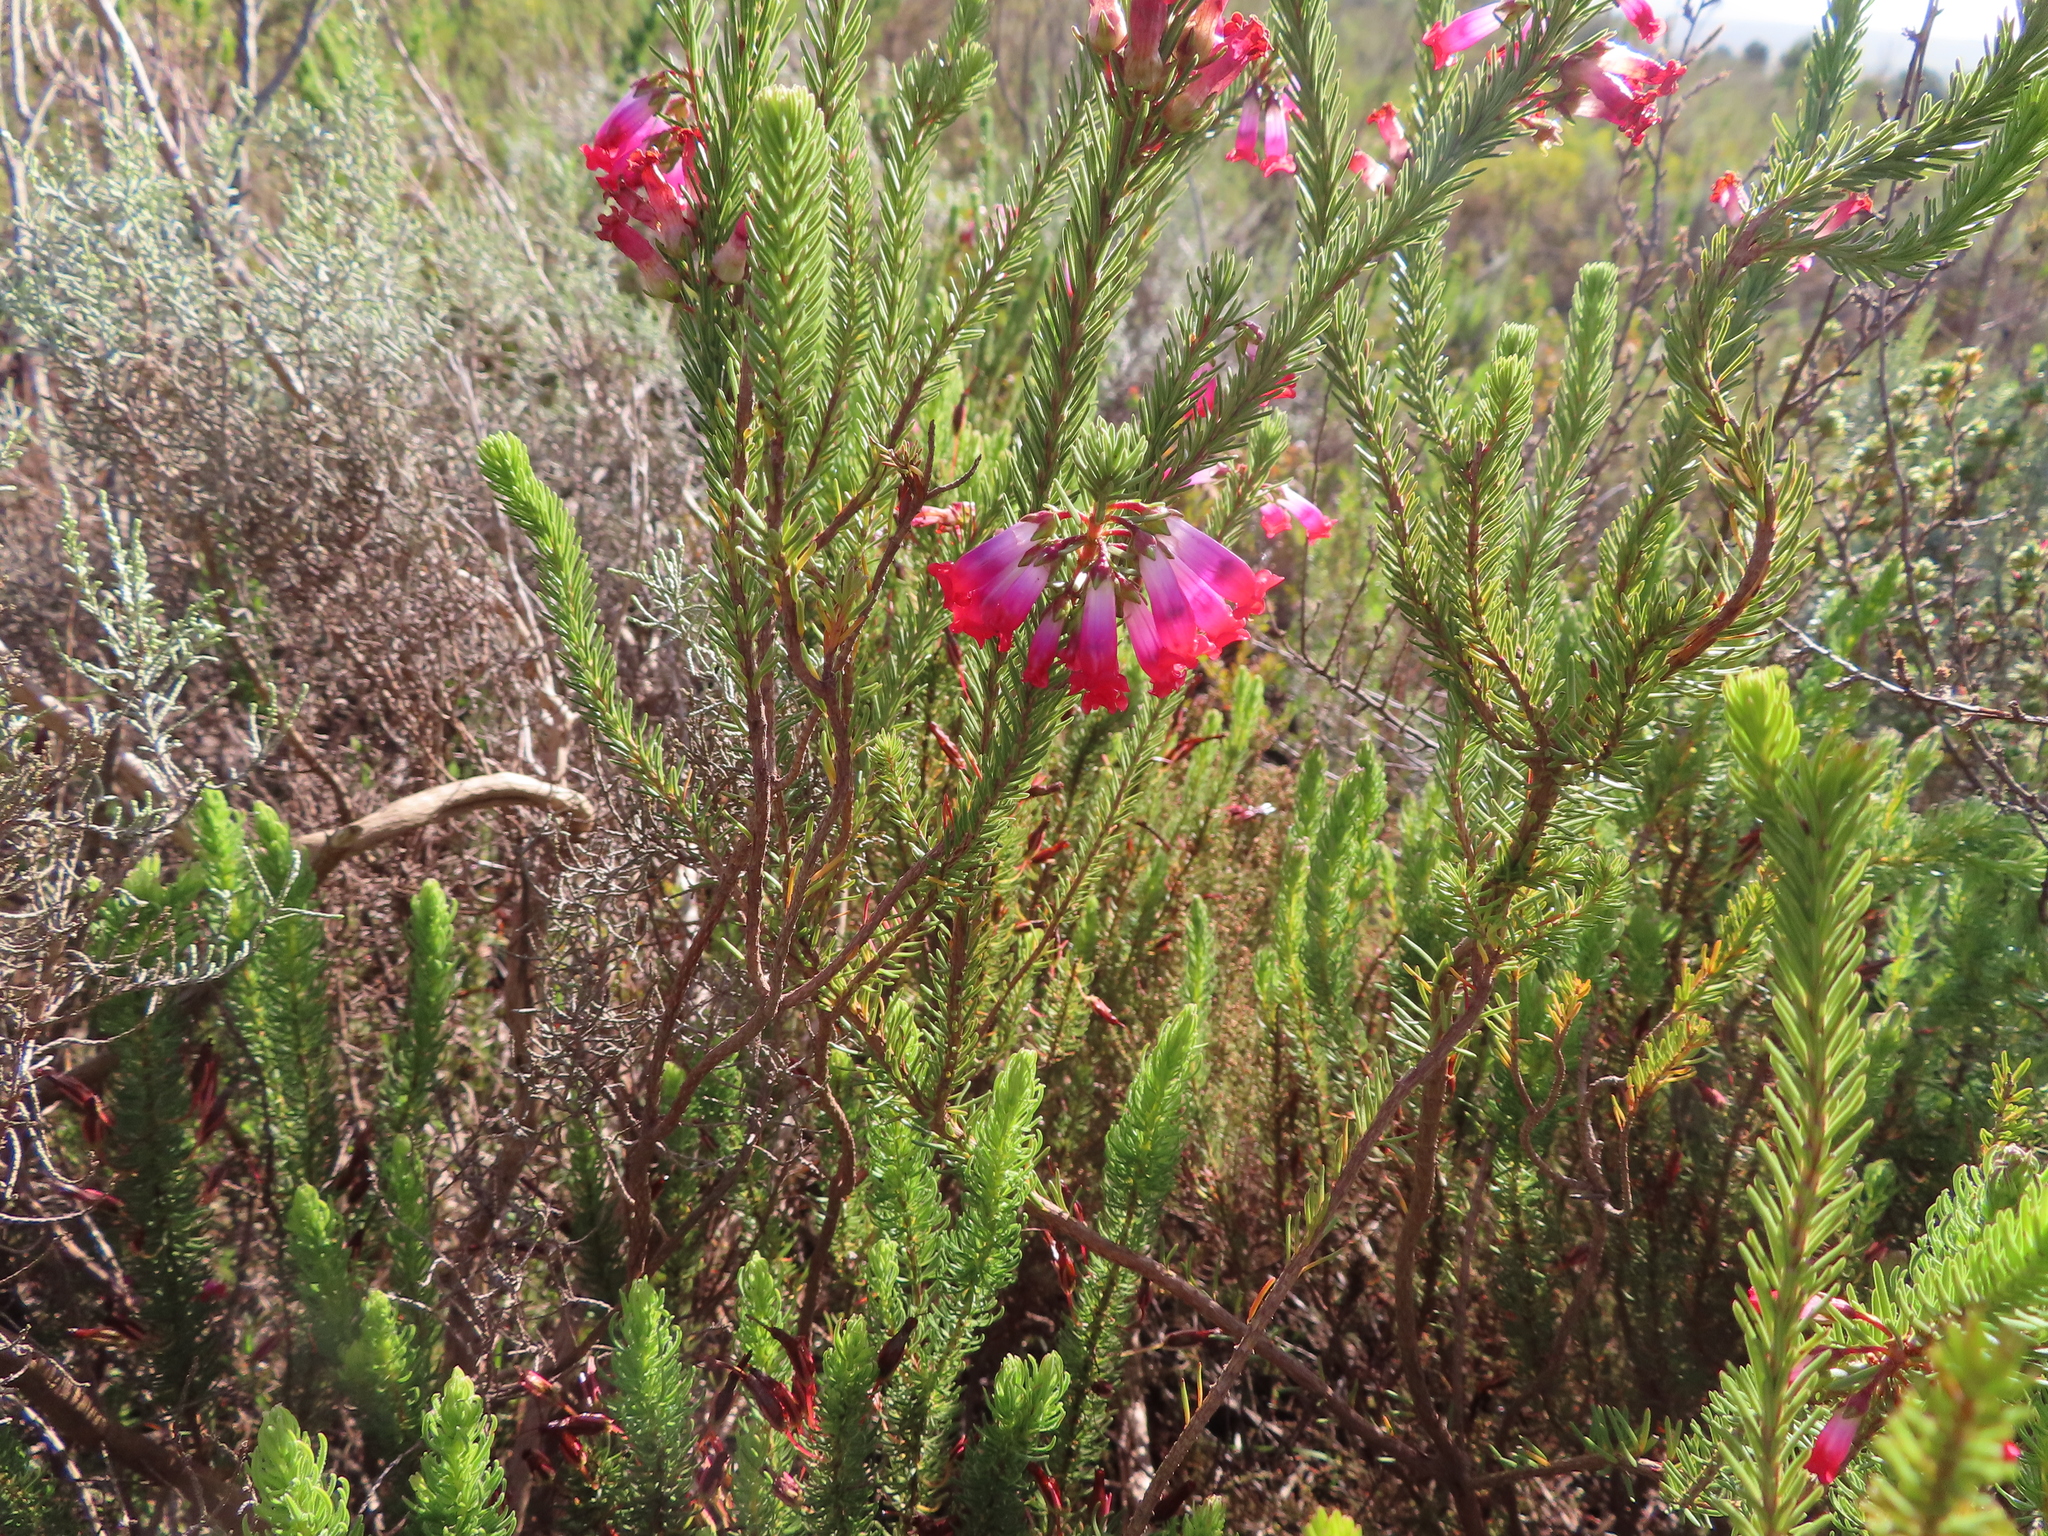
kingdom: Plantae
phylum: Tracheophyta
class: Magnoliopsida
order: Ericales
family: Ericaceae
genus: Erica
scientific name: Erica regia
